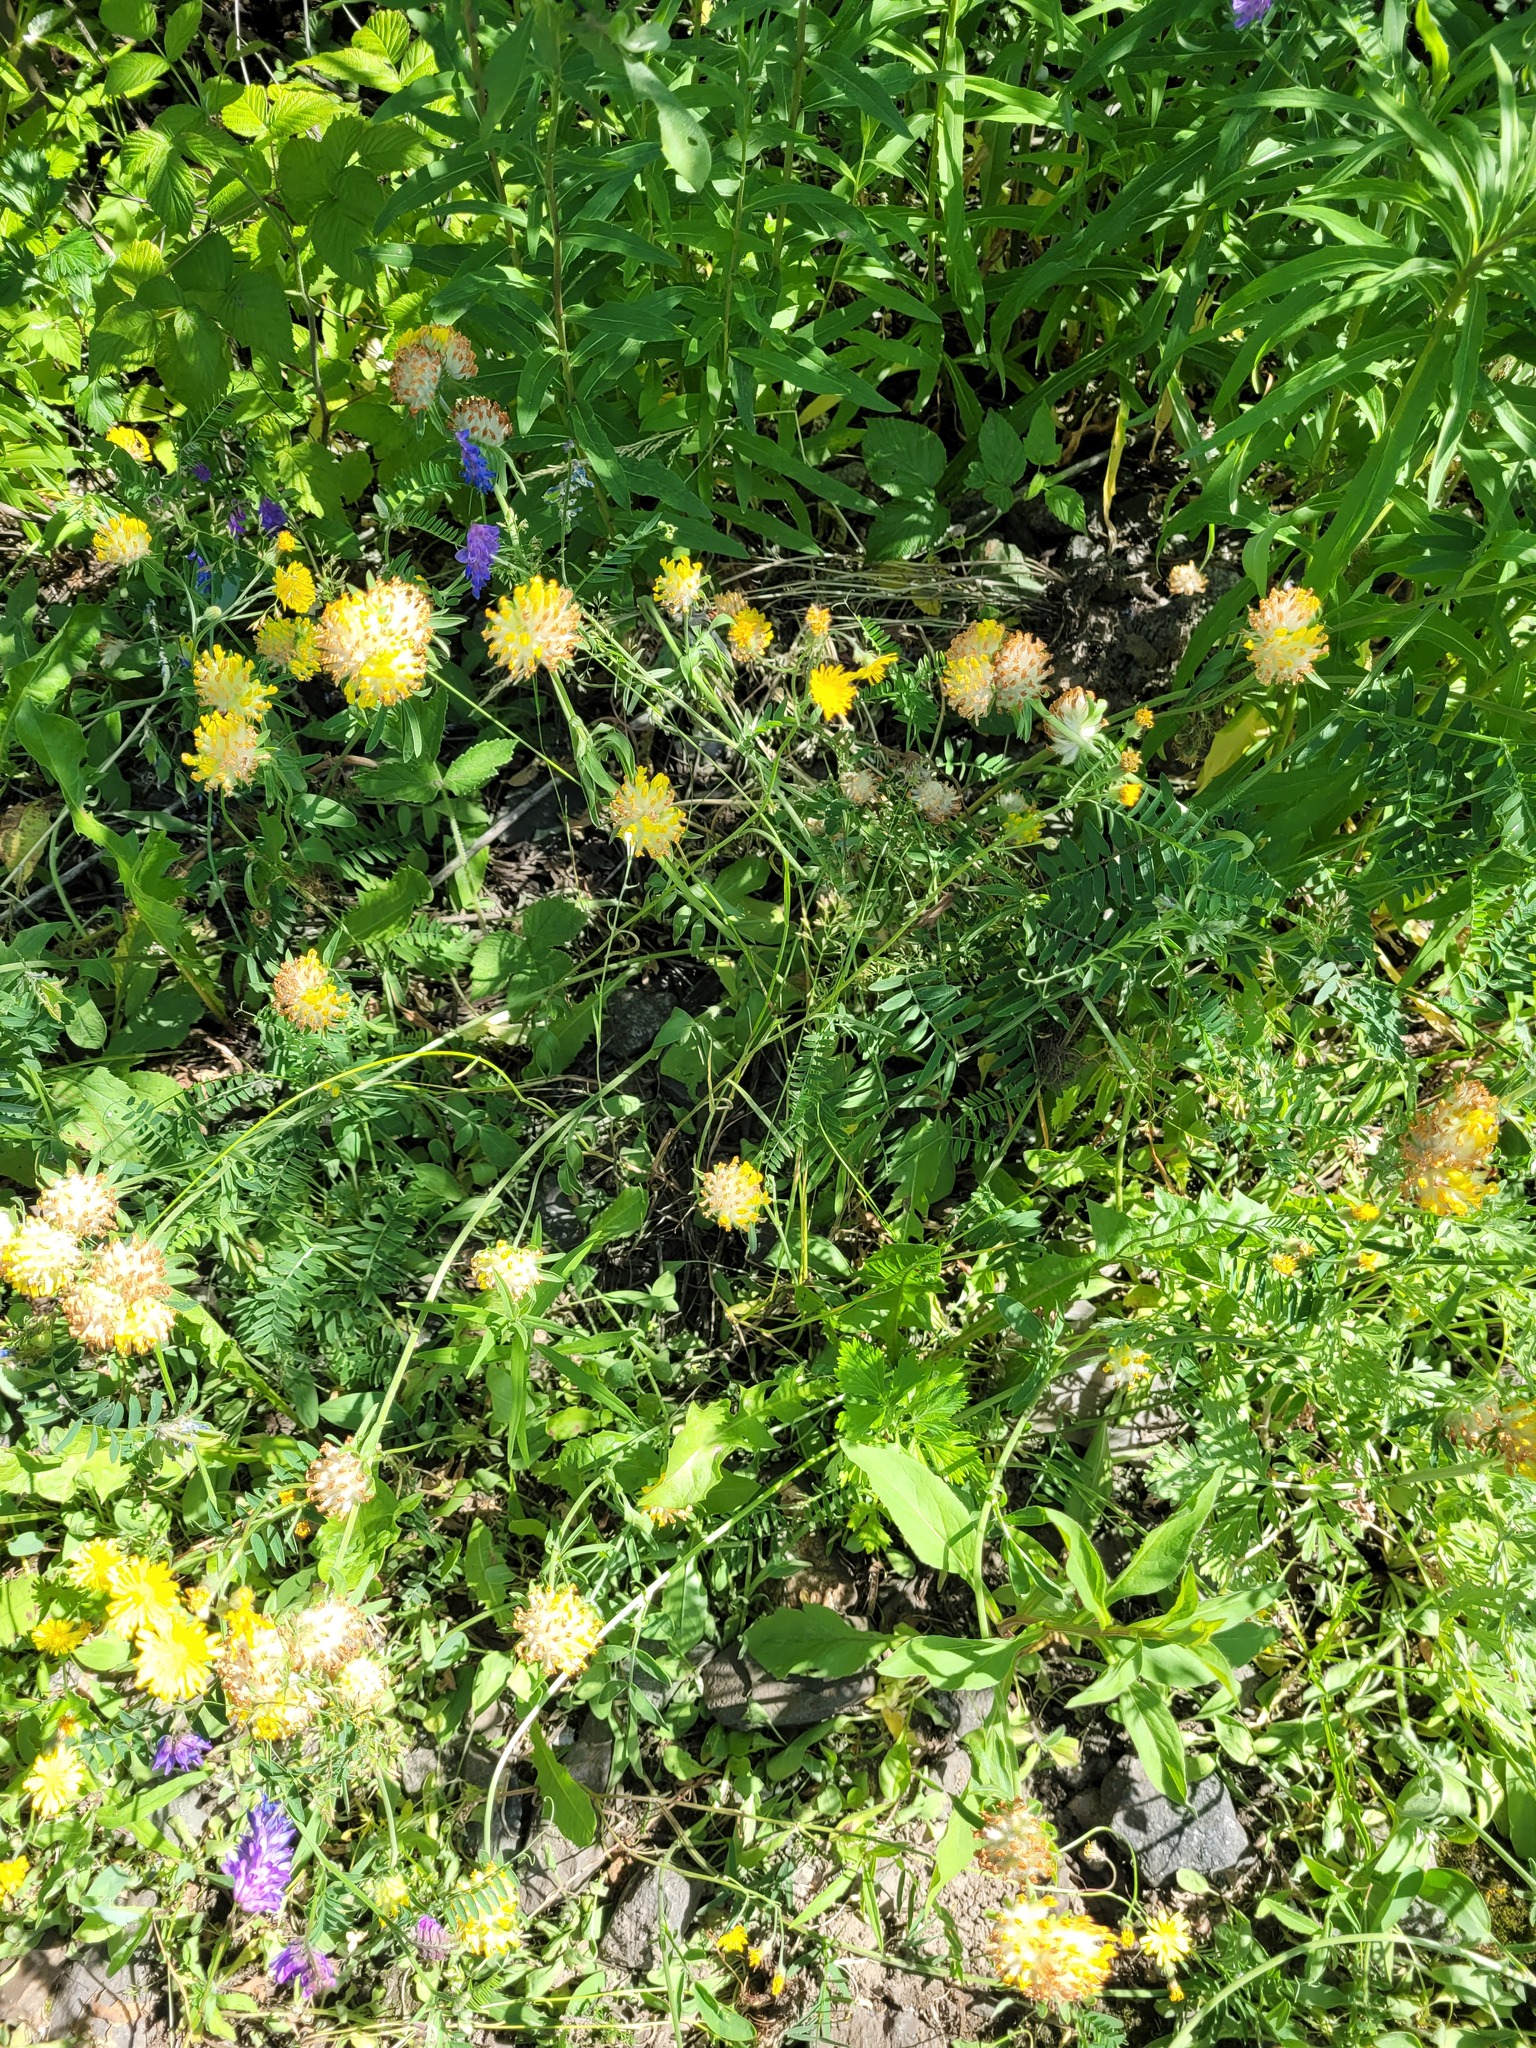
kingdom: Plantae
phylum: Tracheophyta
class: Magnoliopsida
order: Fabales
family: Fabaceae
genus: Anthyllis
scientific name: Anthyllis vulneraria
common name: Kidney vetch
